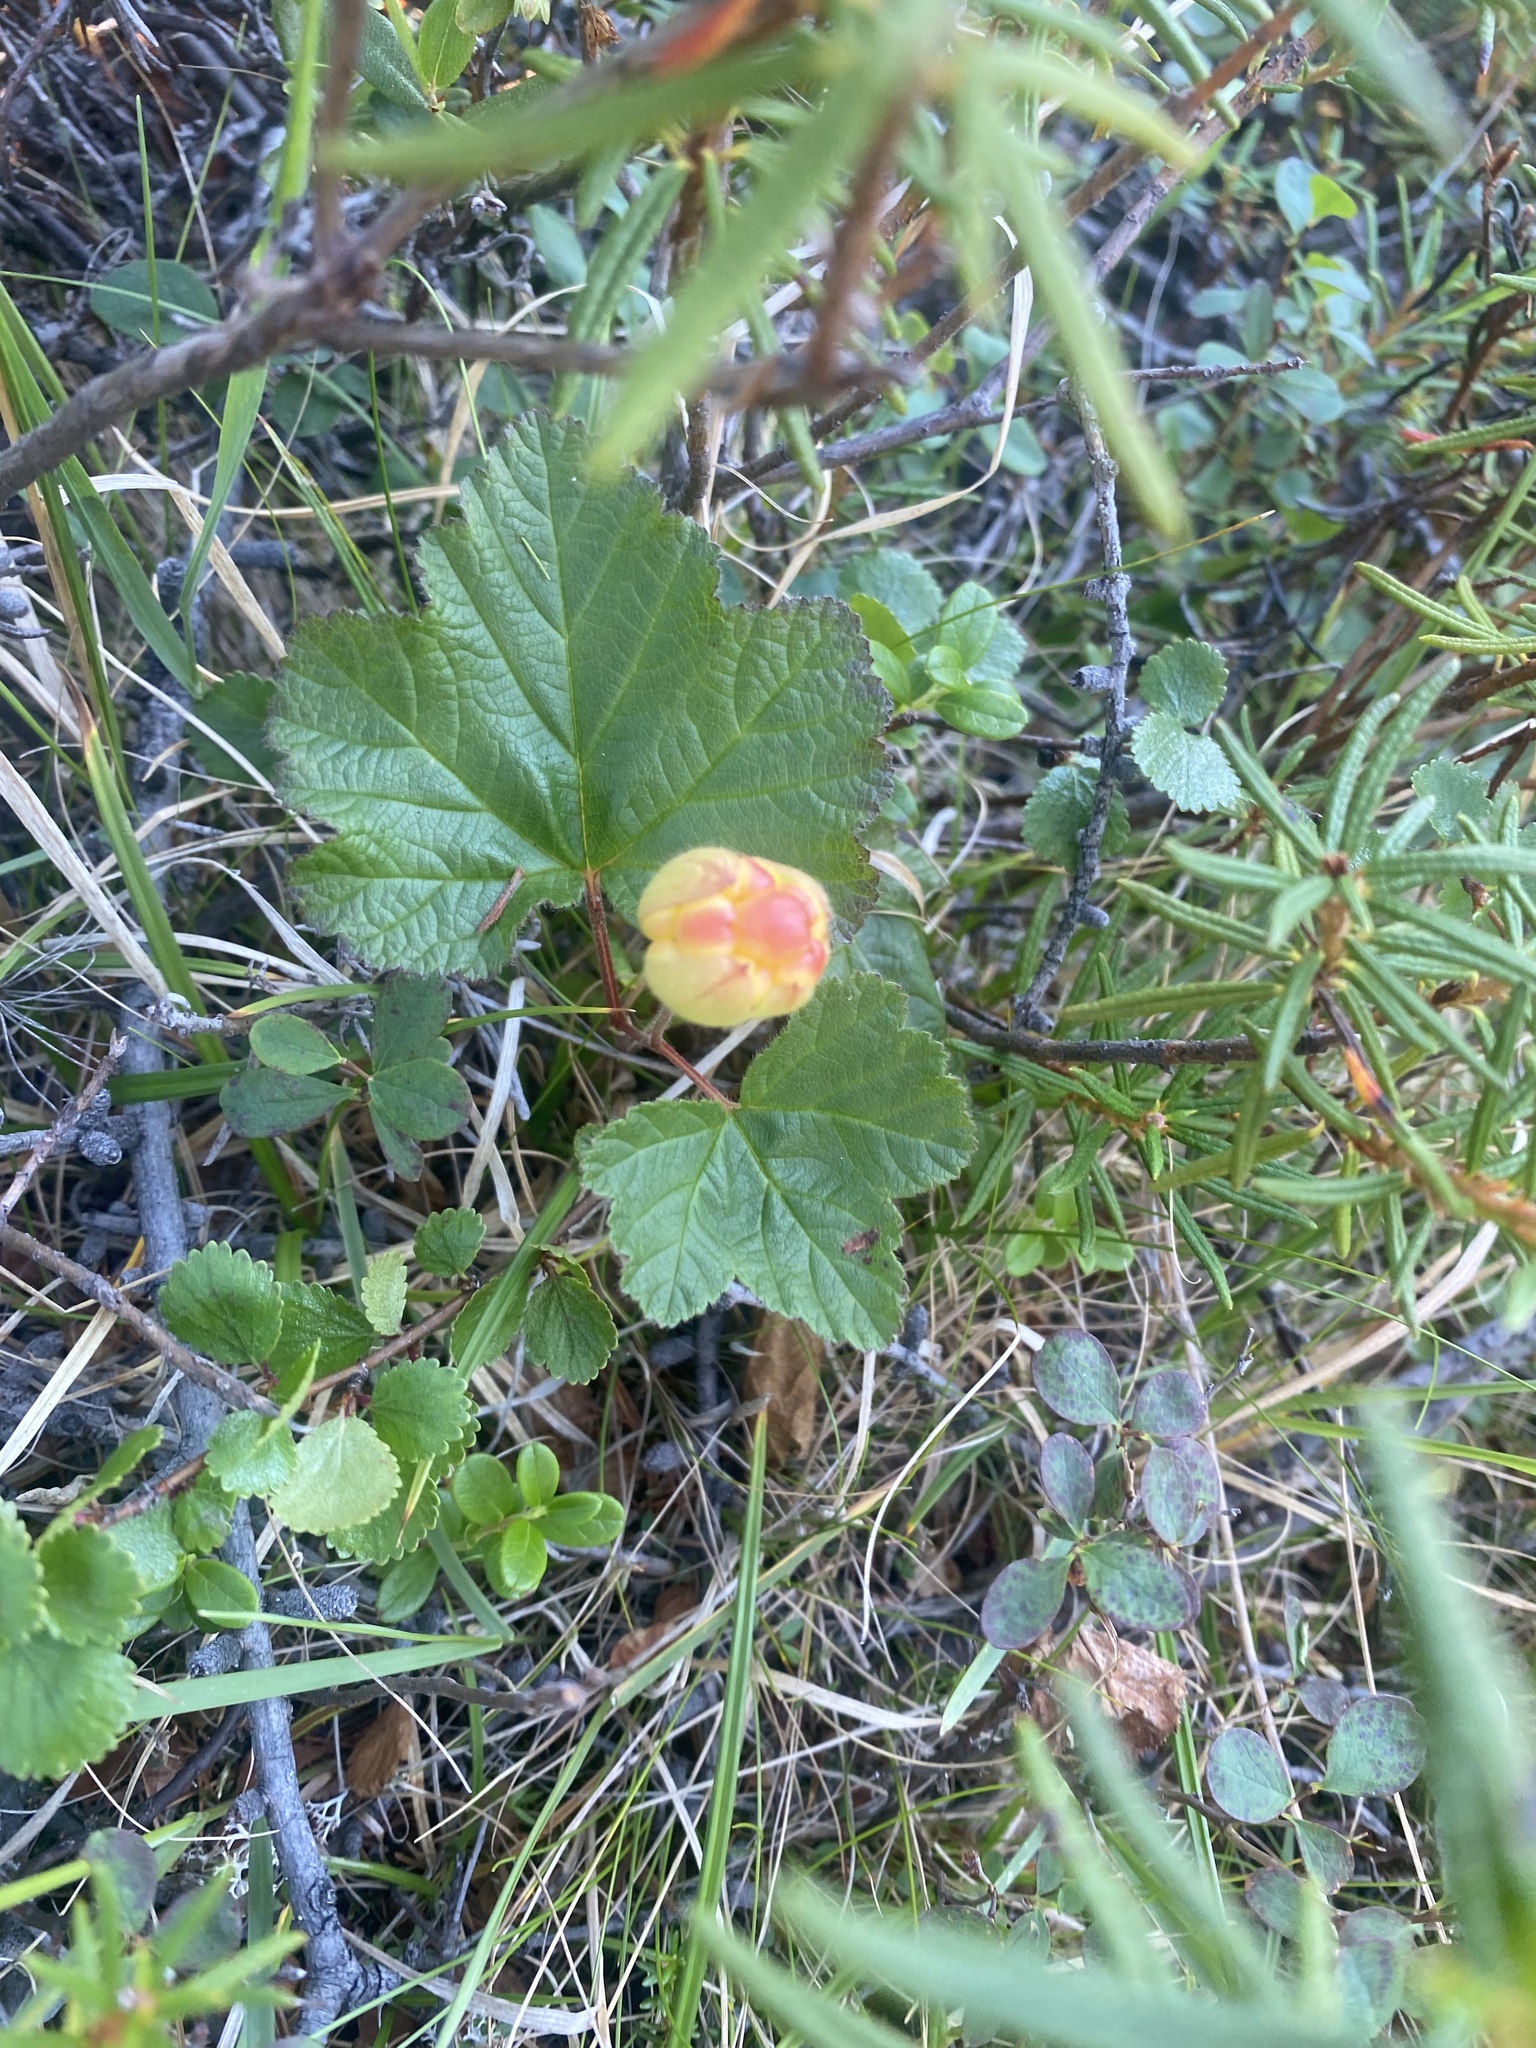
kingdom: Plantae
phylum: Tracheophyta
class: Magnoliopsida
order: Rosales
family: Rosaceae
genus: Rubus
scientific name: Rubus chamaemorus
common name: Cloudberry
